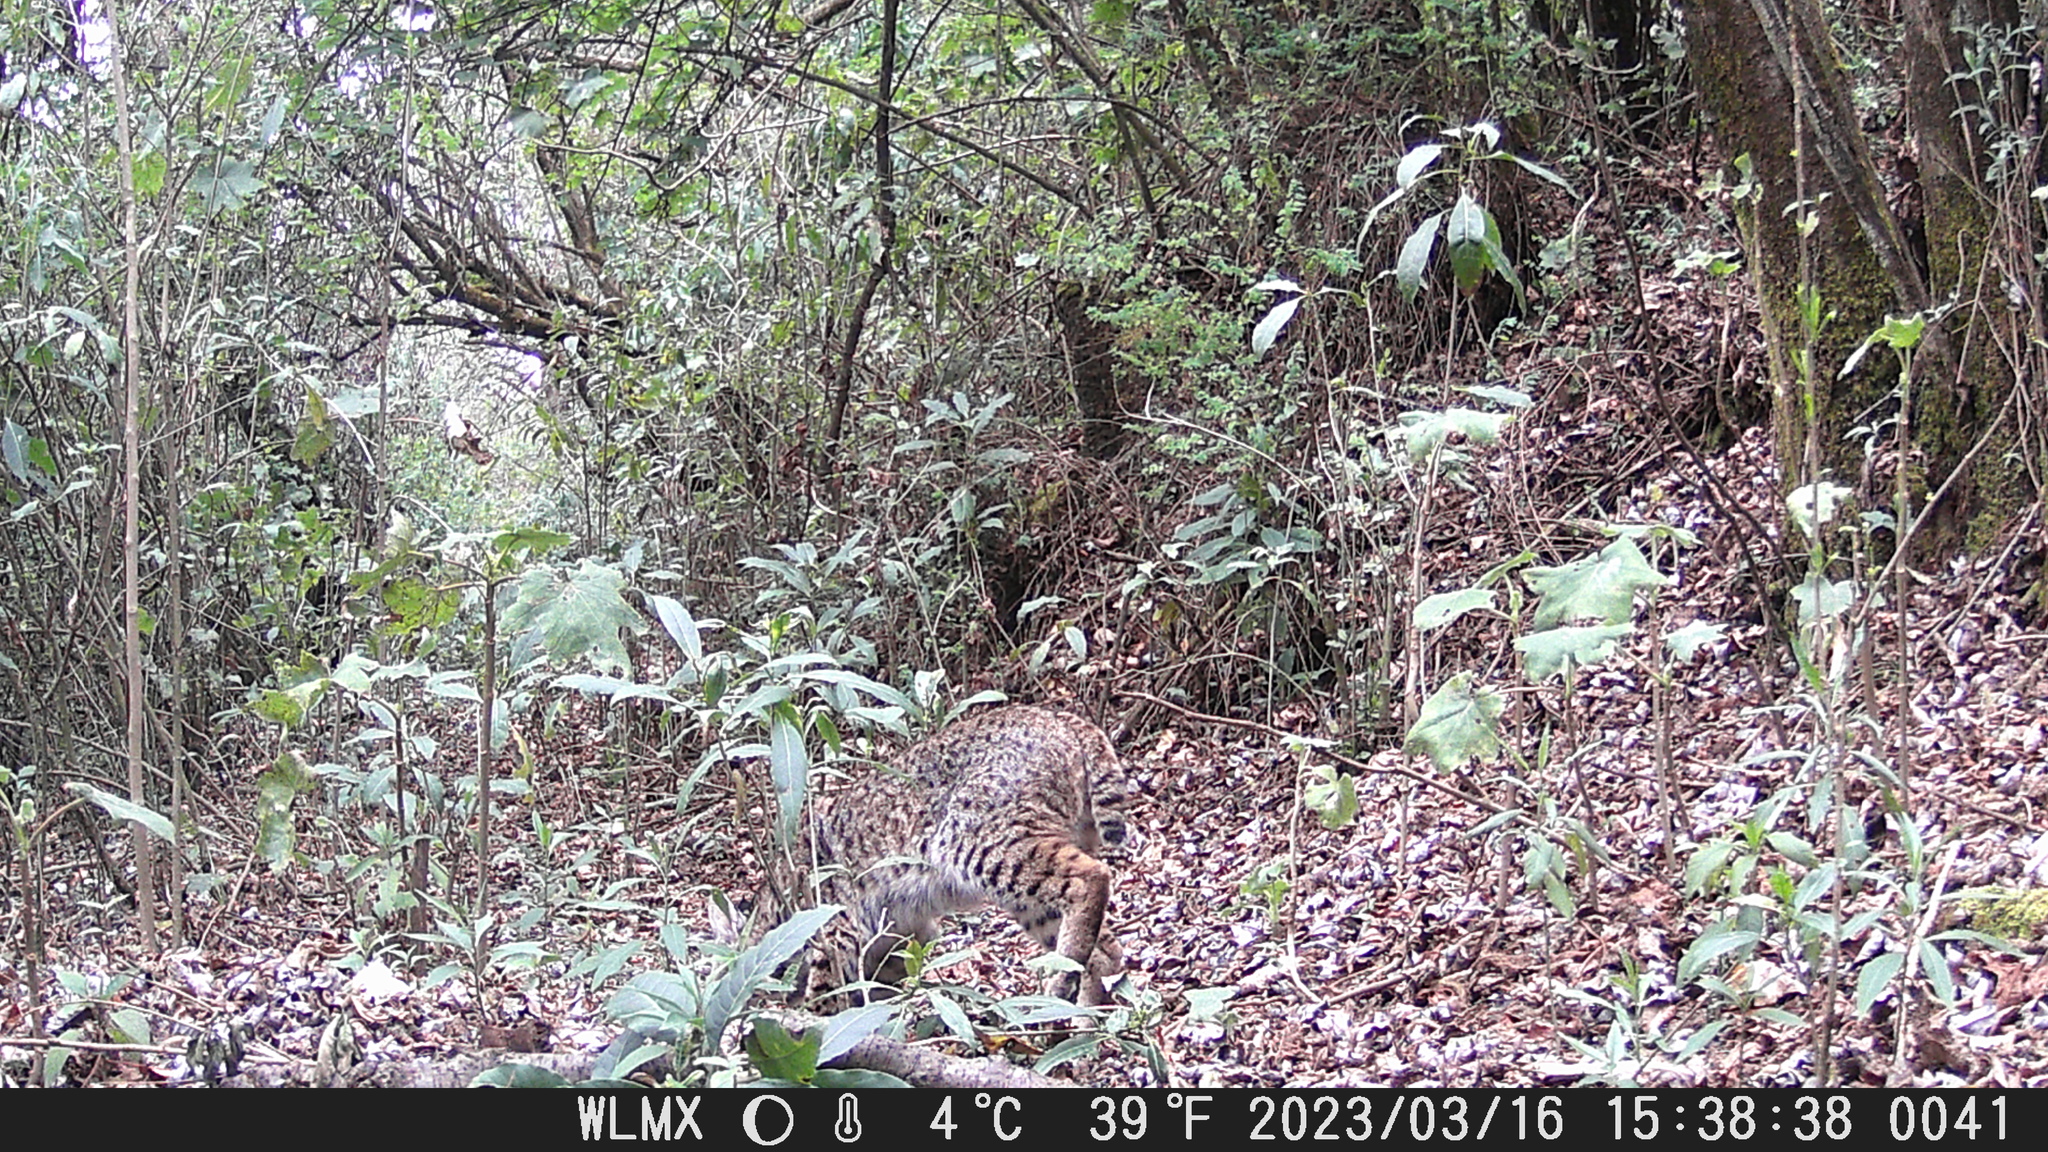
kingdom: Animalia
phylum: Chordata
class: Mammalia
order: Carnivora
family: Felidae
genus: Lynx
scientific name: Lynx rufus
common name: Bobcat
